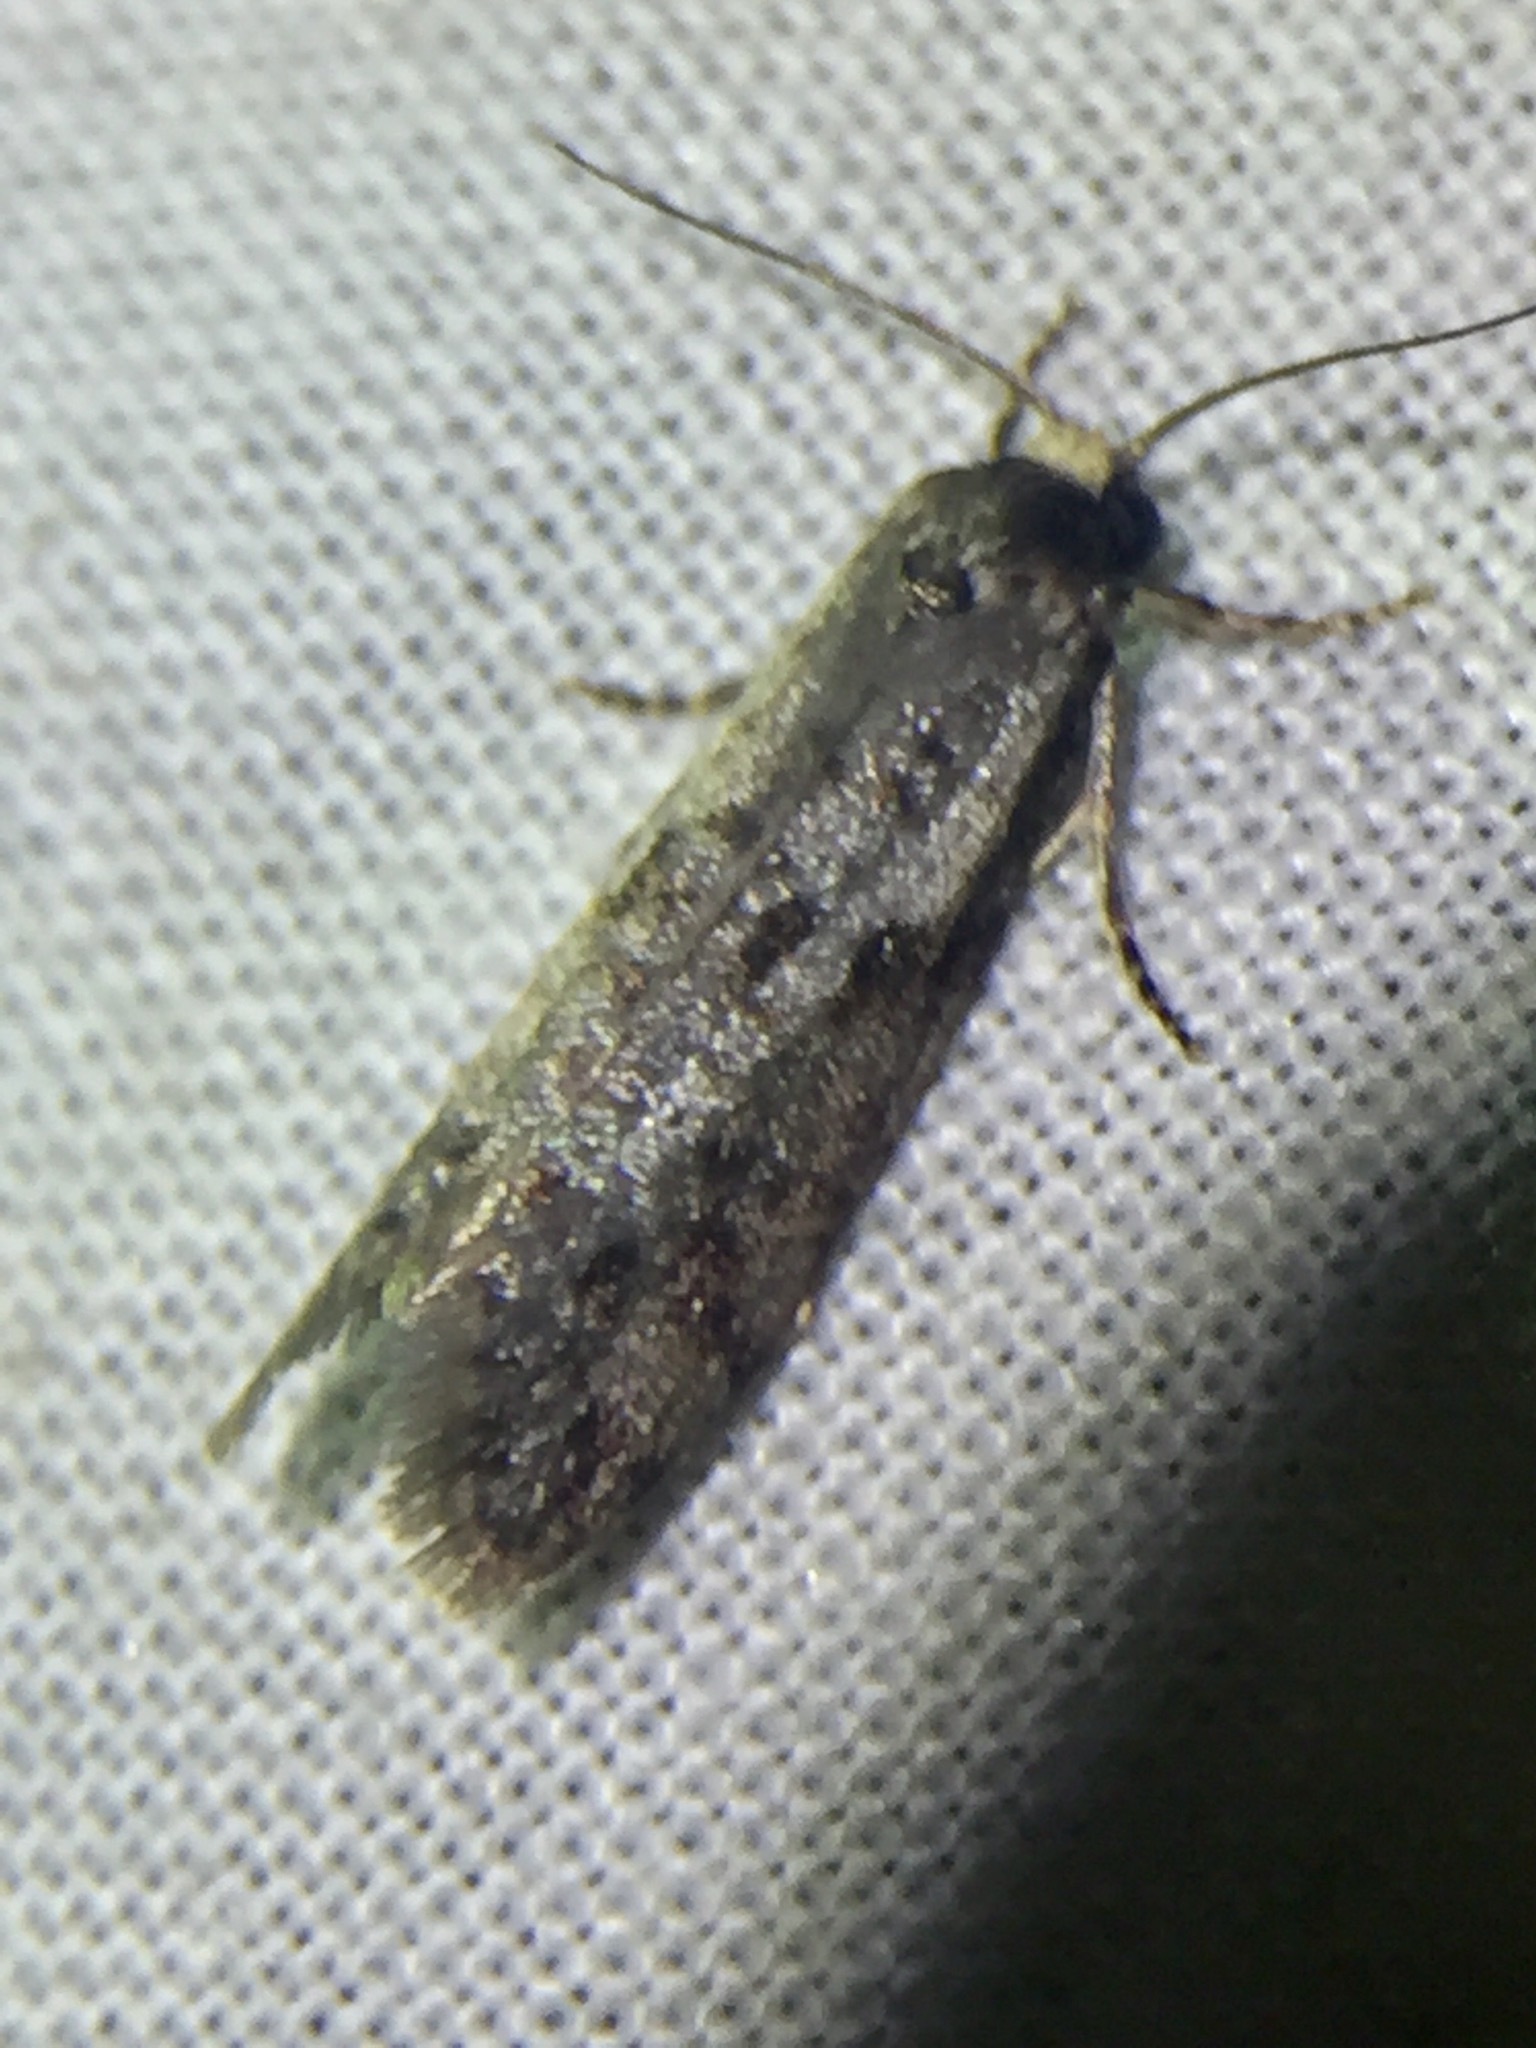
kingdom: Animalia
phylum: Arthropoda
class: Insecta
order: Lepidoptera
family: Psychidae
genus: Lepidoscia
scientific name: Lepidoscia protorna
